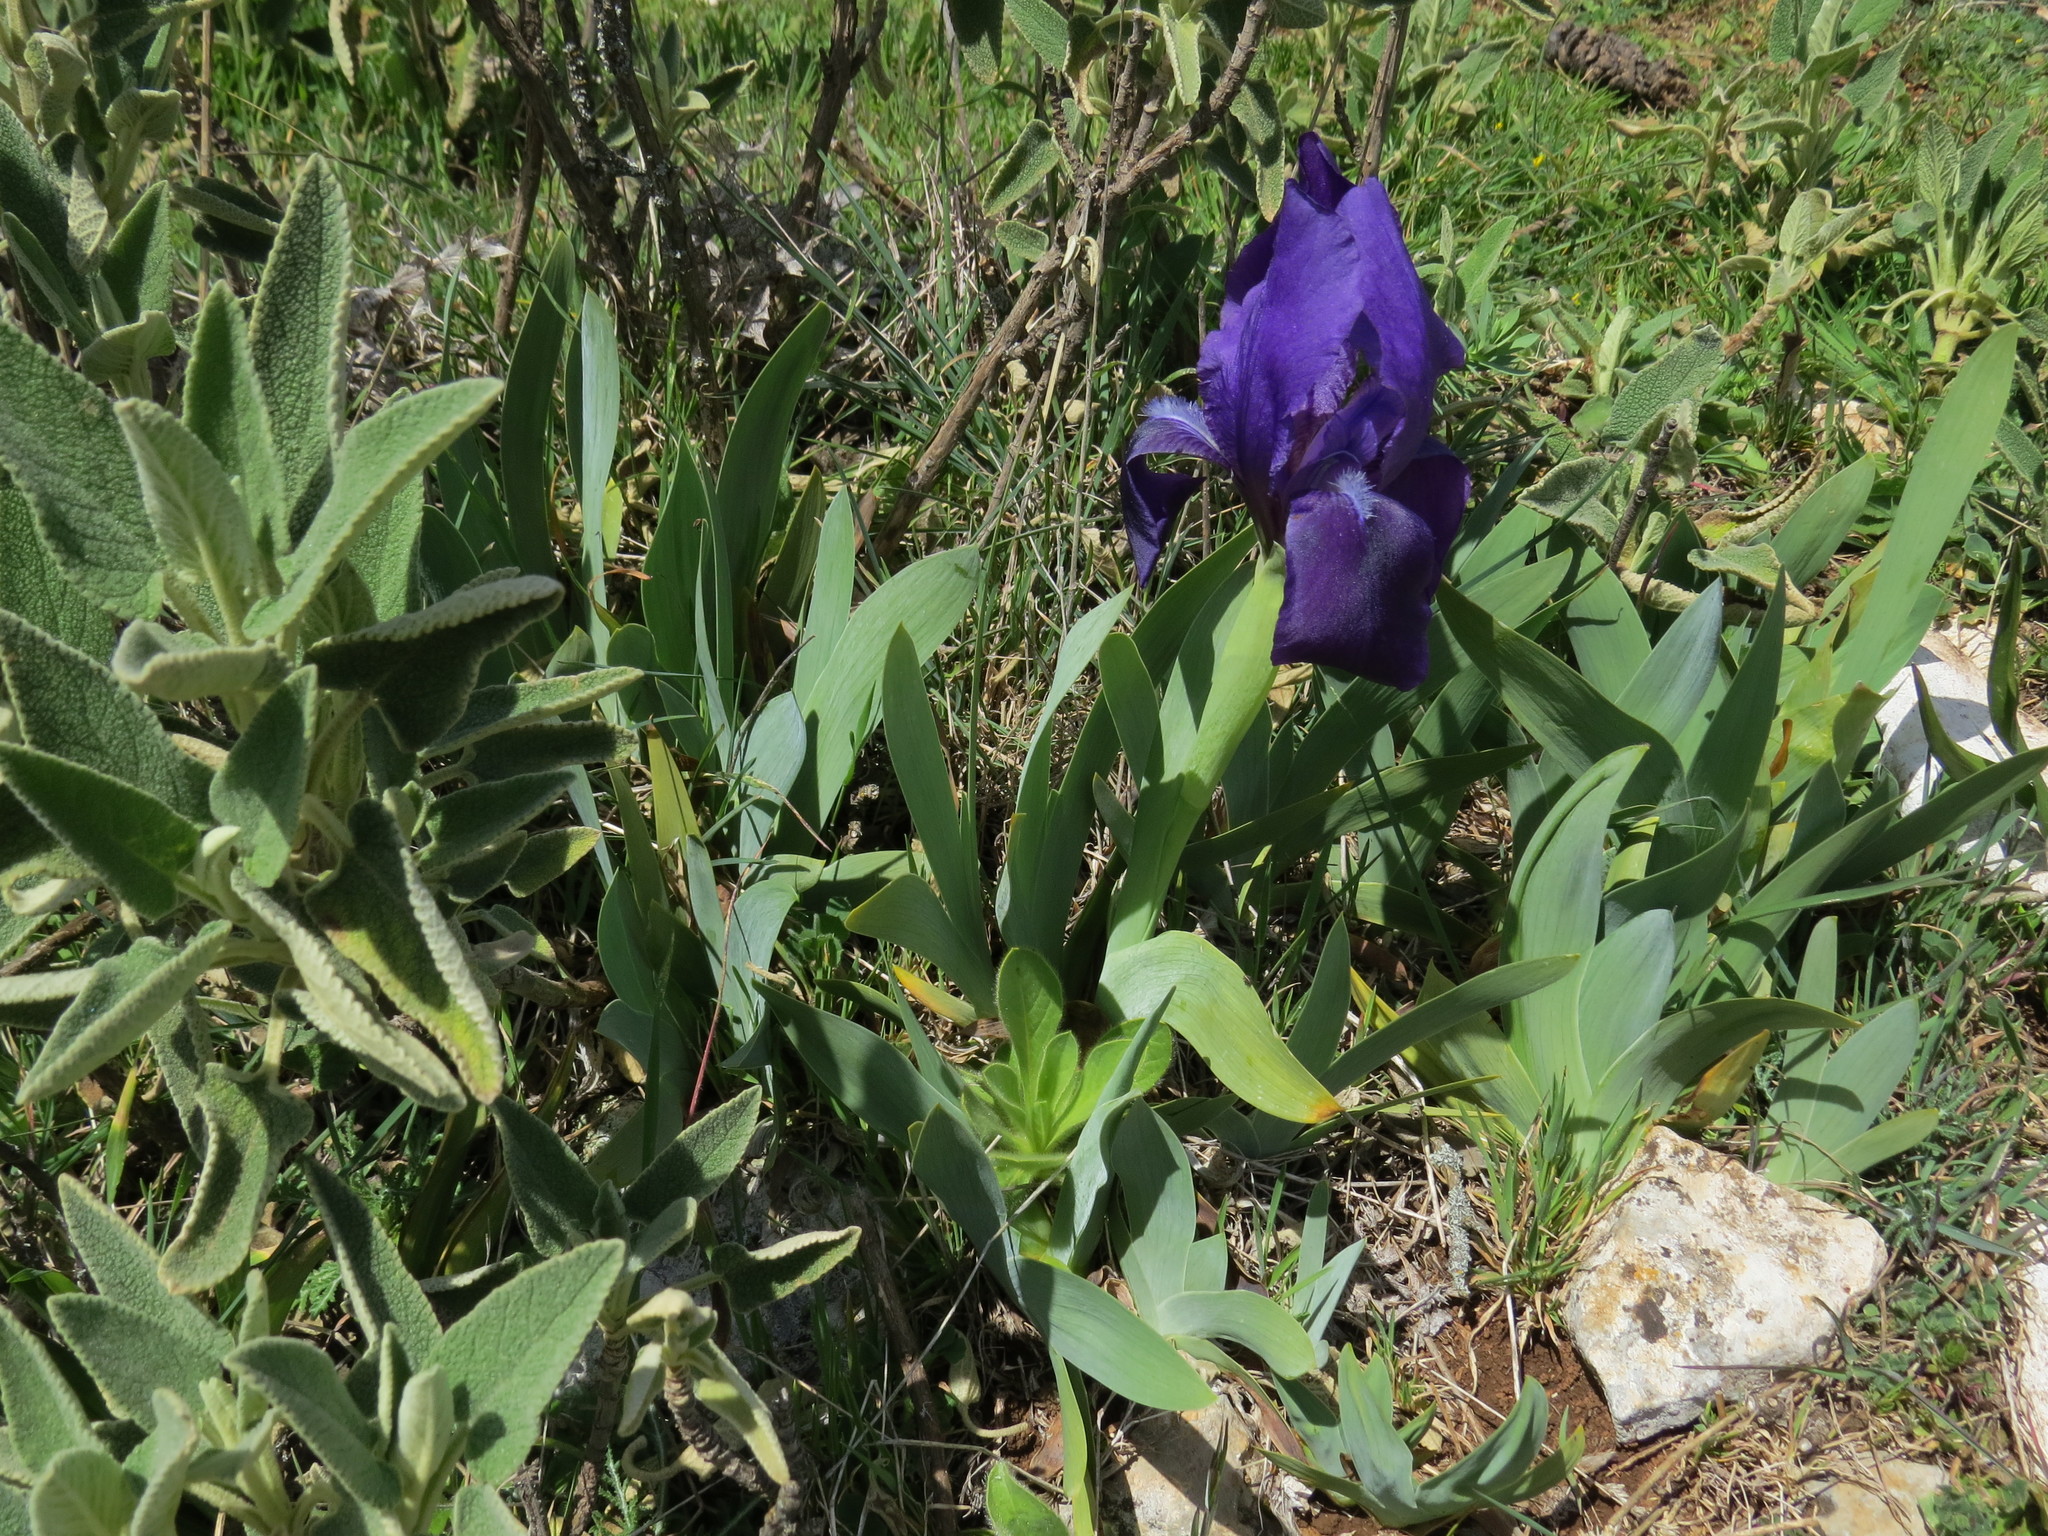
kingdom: Plantae
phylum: Tracheophyta
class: Liliopsida
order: Asparagales
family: Iridaceae
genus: Iris
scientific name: Iris lutescens
